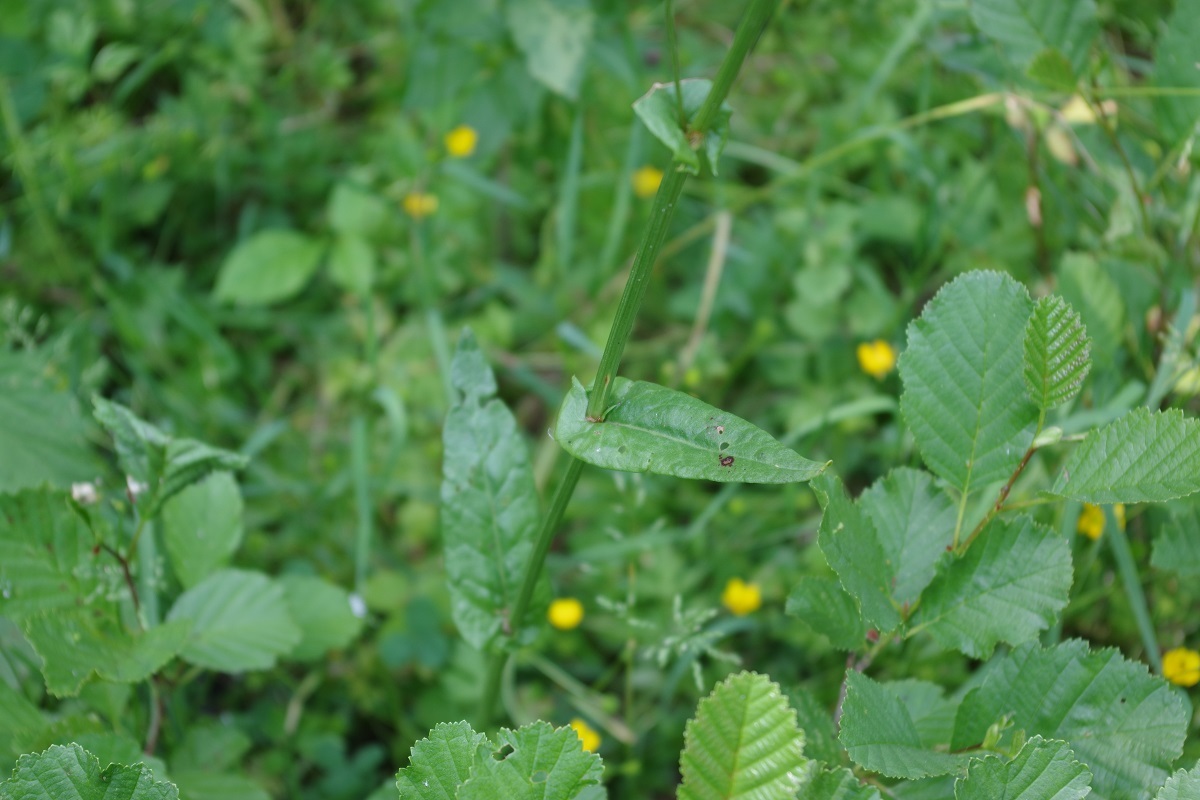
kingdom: Plantae
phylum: Tracheophyta
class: Magnoliopsida
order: Caryophyllales
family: Polygonaceae
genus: Rumex
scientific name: Rumex acetosa
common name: Garden sorrel
